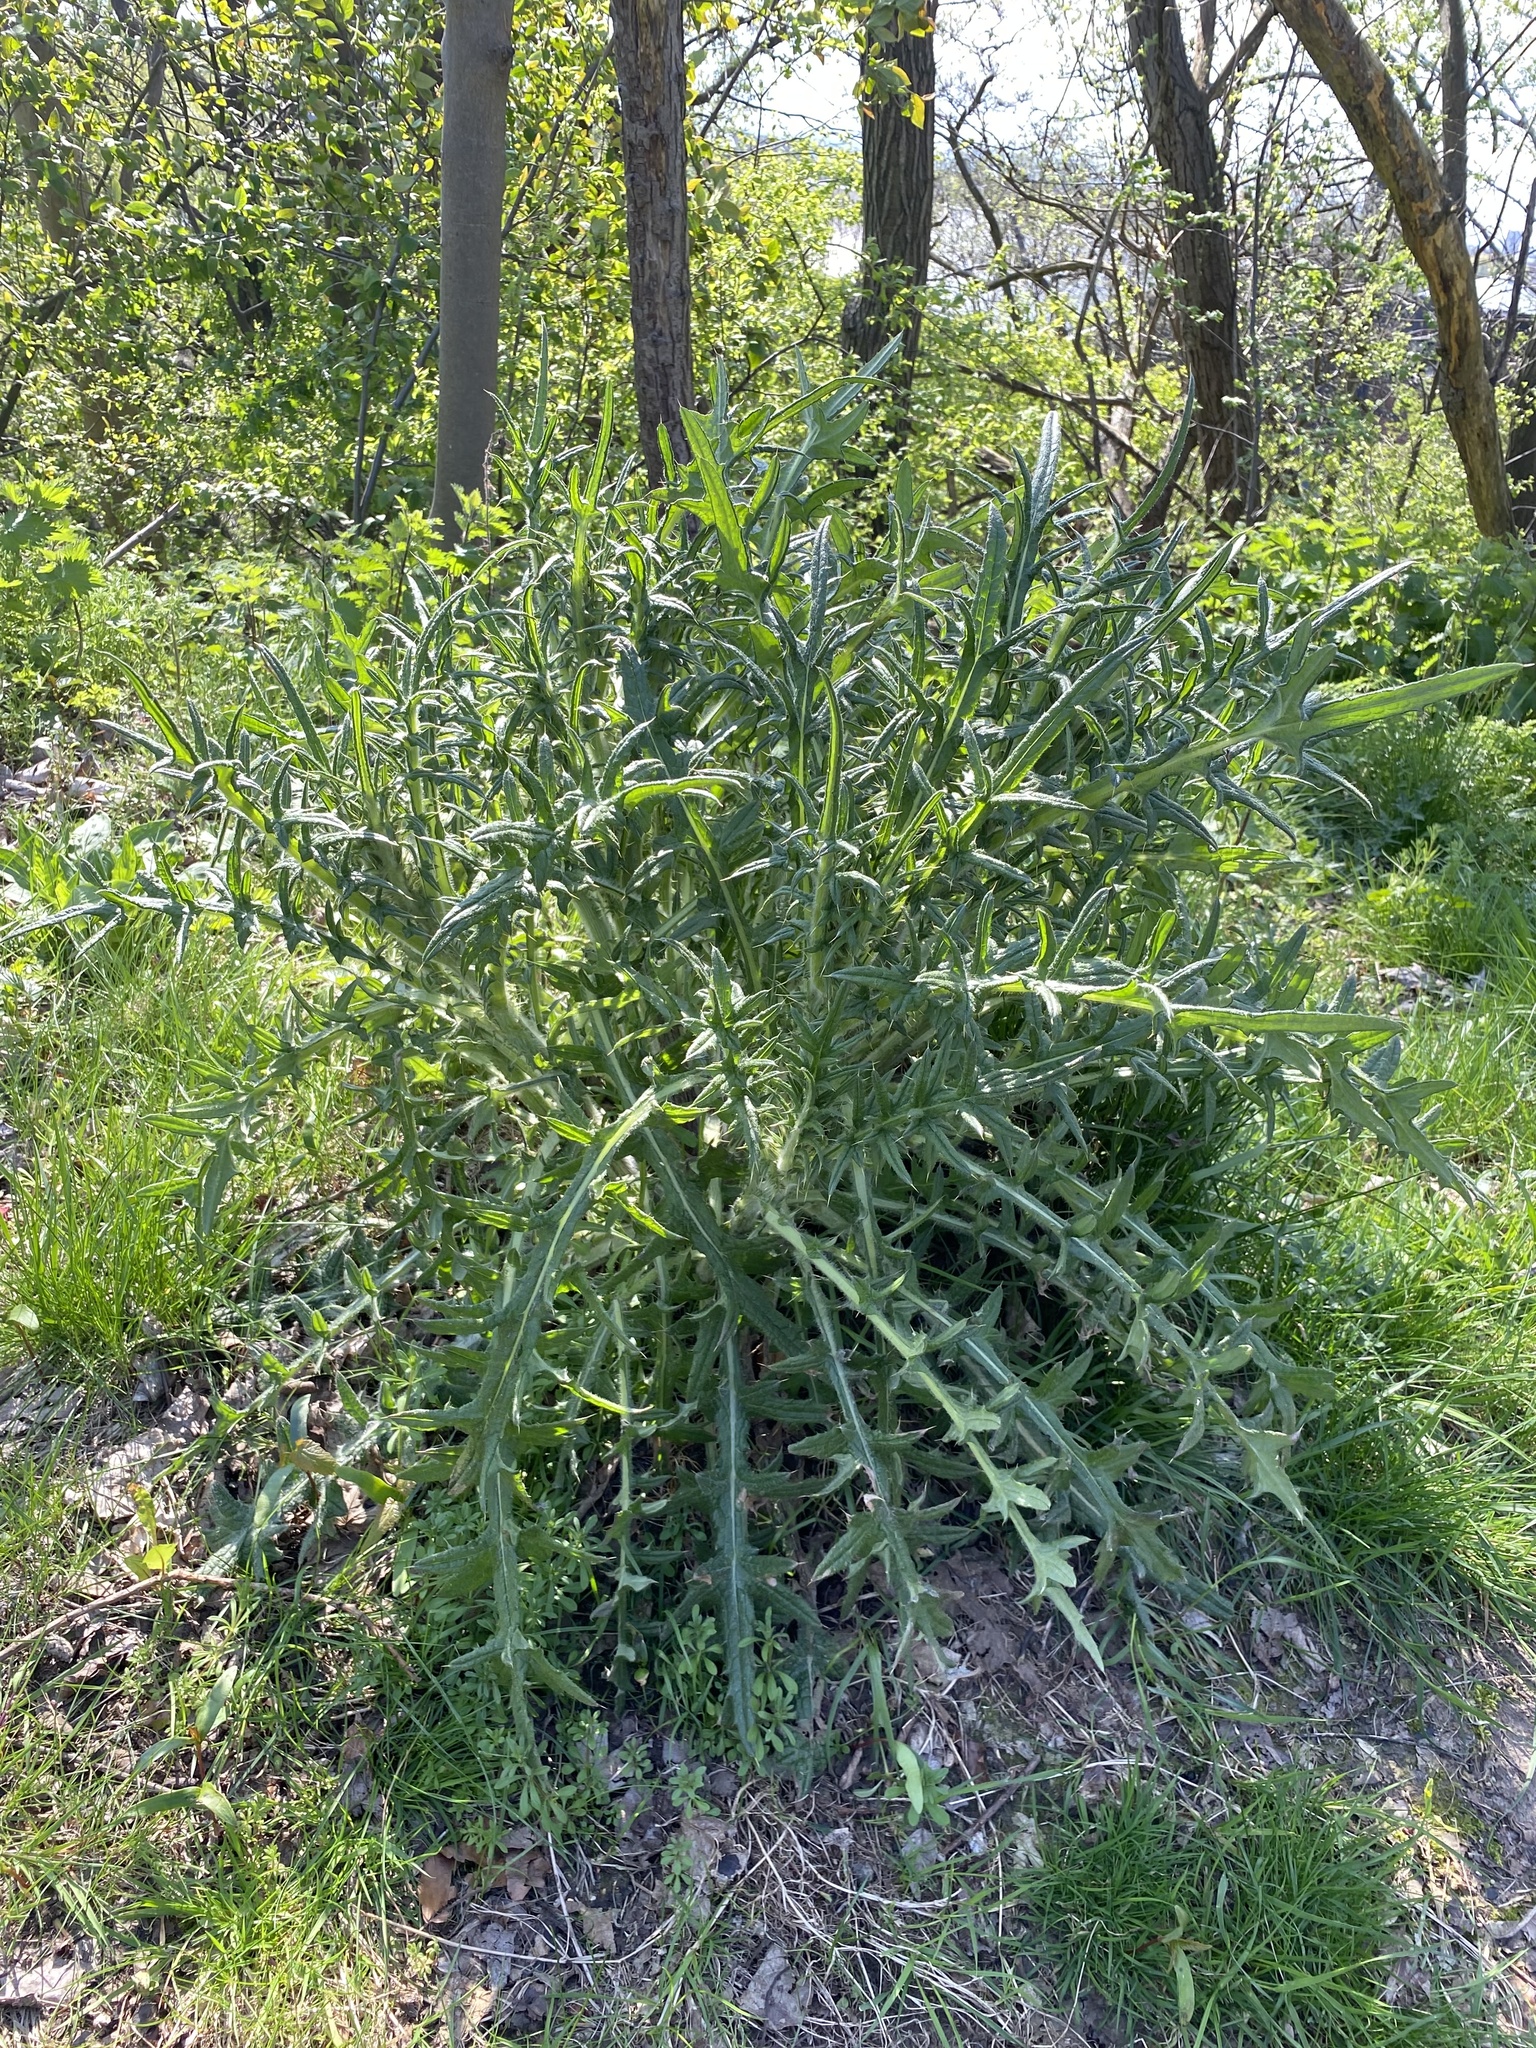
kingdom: Plantae
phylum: Tracheophyta
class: Magnoliopsida
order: Asterales
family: Asteraceae
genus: Cirsium
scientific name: Cirsium vulgare
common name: Bull thistle
